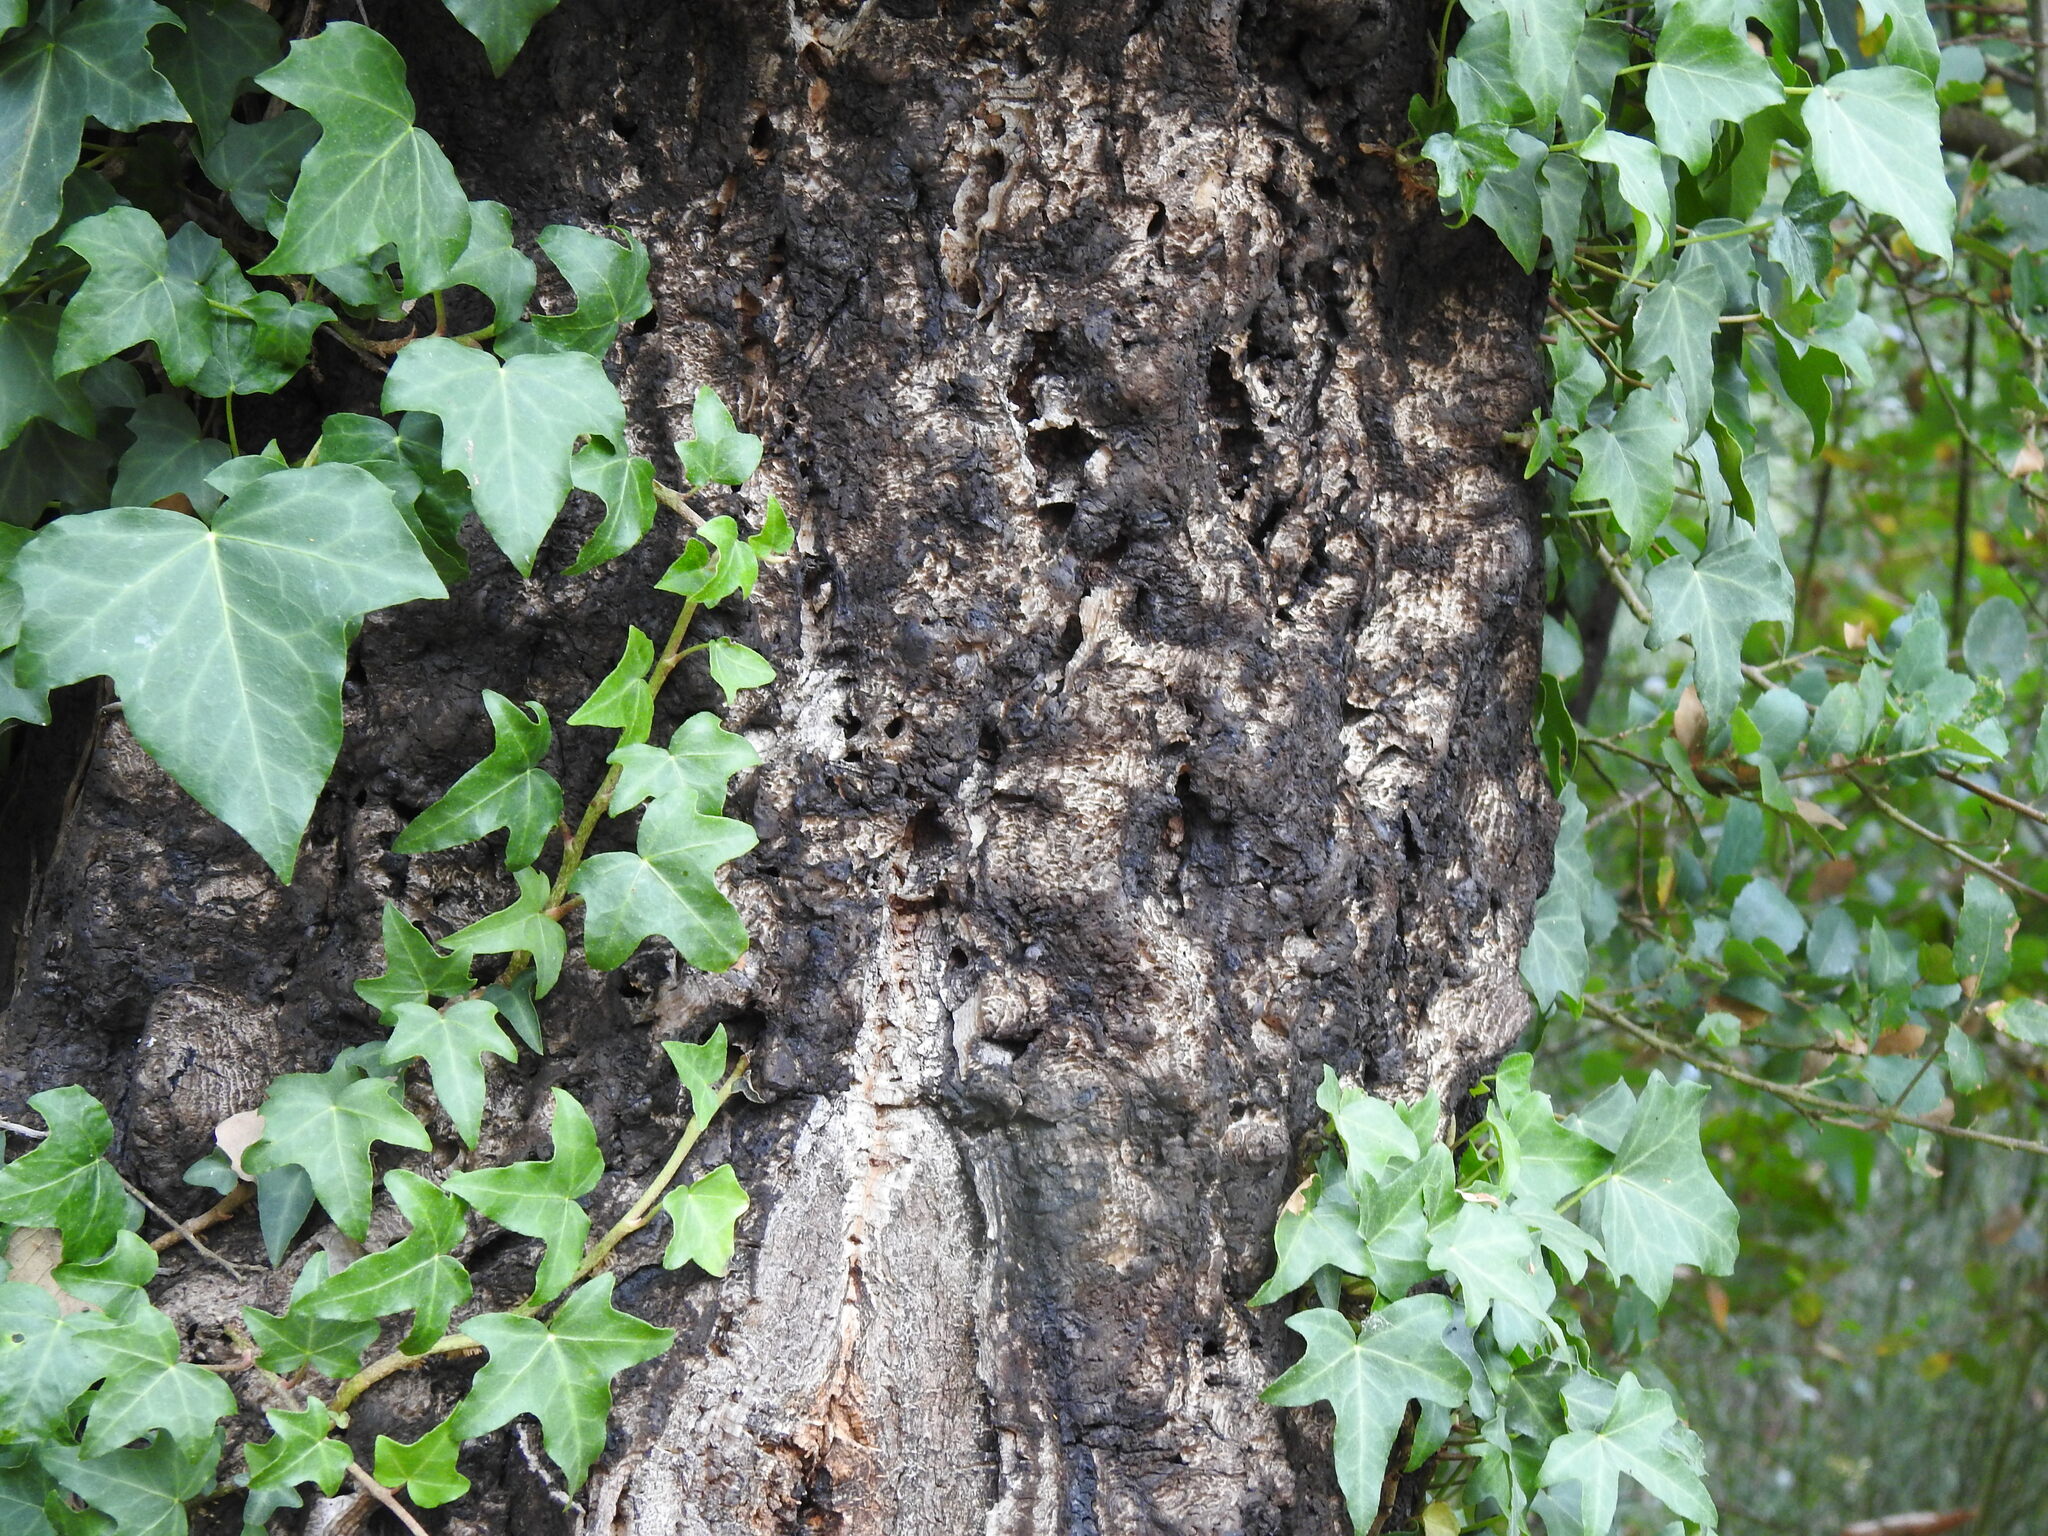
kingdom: Plantae
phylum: Tracheophyta
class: Magnoliopsida
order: Fagales
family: Fagaceae
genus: Quercus
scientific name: Quercus suber
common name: Cork oak
